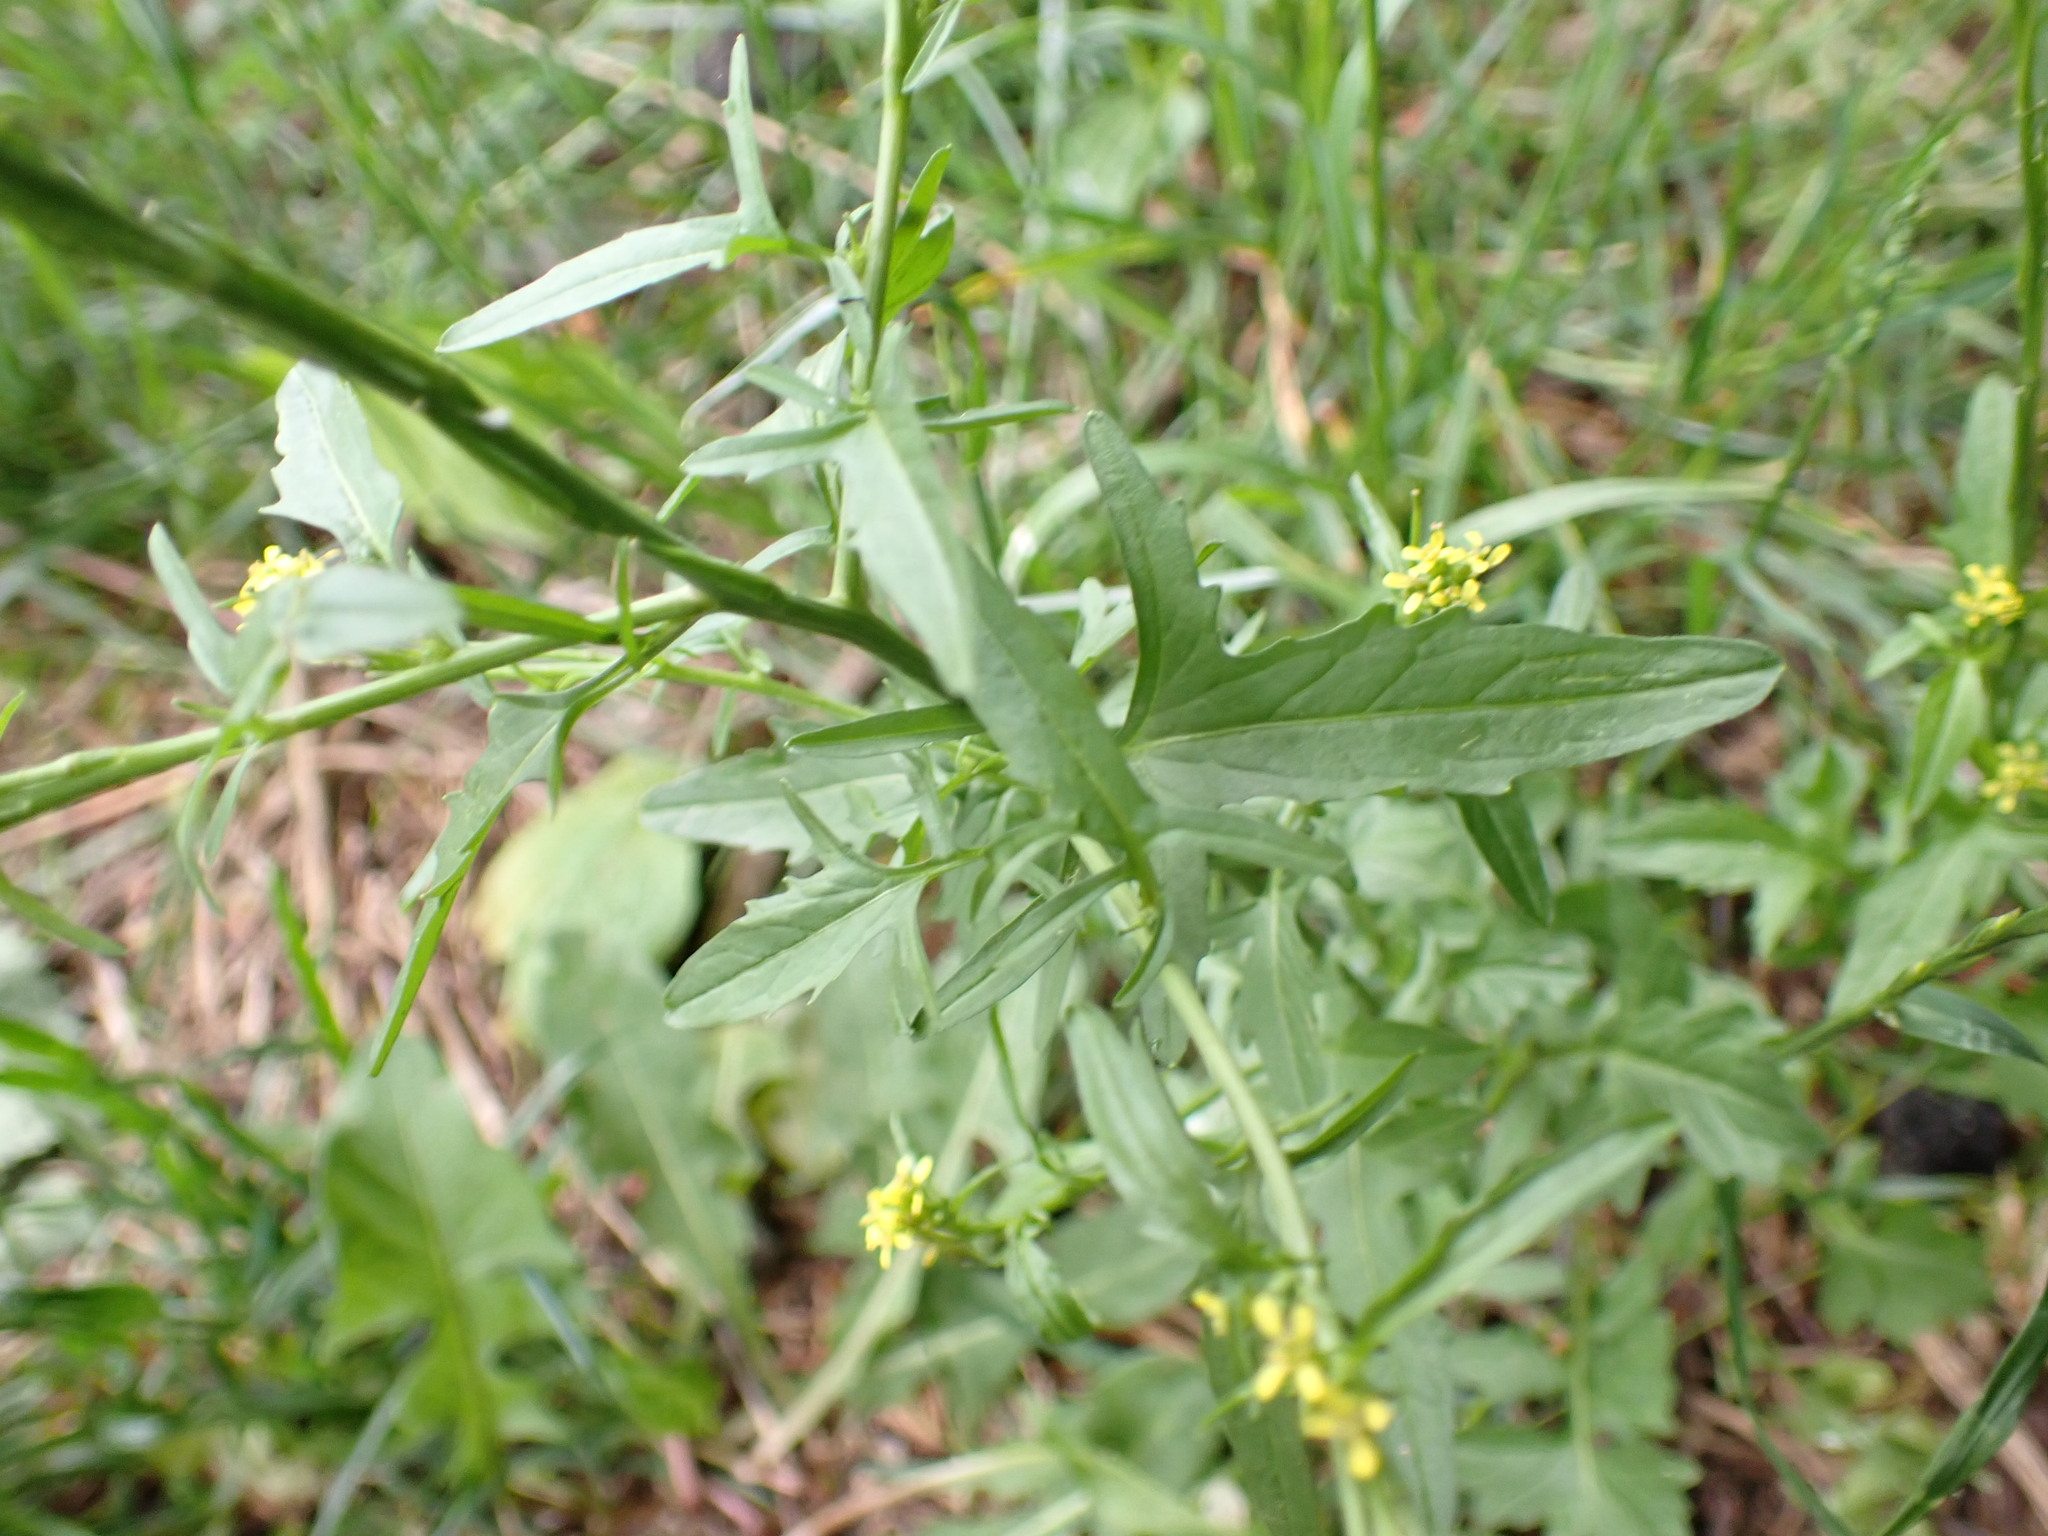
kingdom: Plantae
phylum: Tracheophyta
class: Magnoliopsida
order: Brassicales
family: Brassicaceae
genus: Sisymbrium
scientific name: Sisymbrium officinale
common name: Hedge mustard
